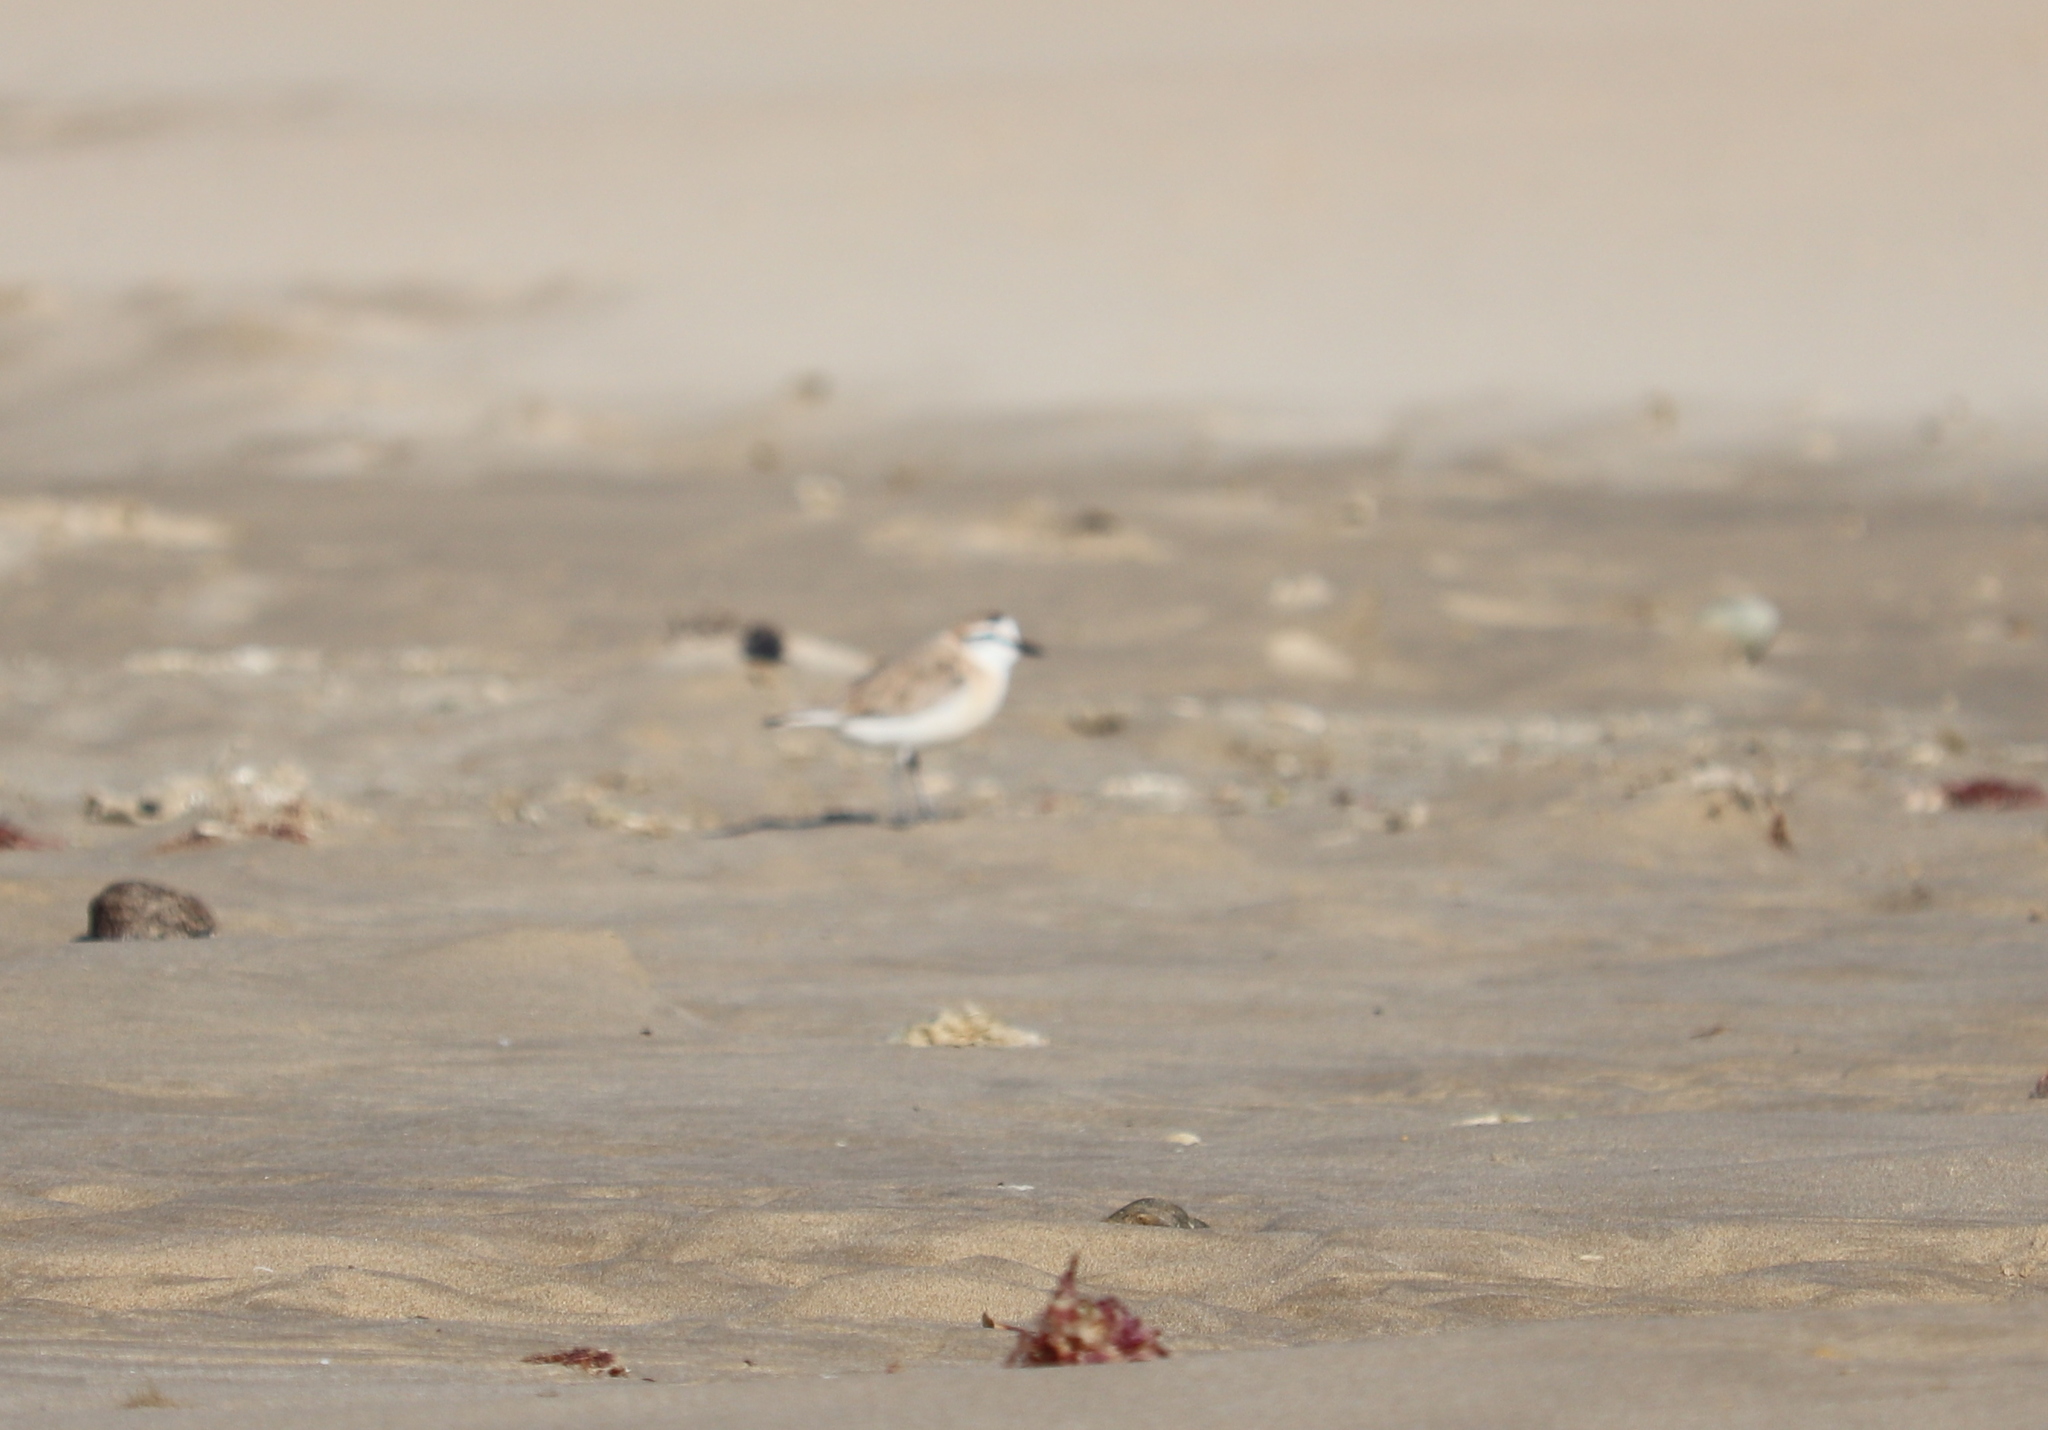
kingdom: Animalia
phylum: Chordata
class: Aves
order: Charadriiformes
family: Charadriidae
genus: Anarhynchus
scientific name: Anarhynchus
